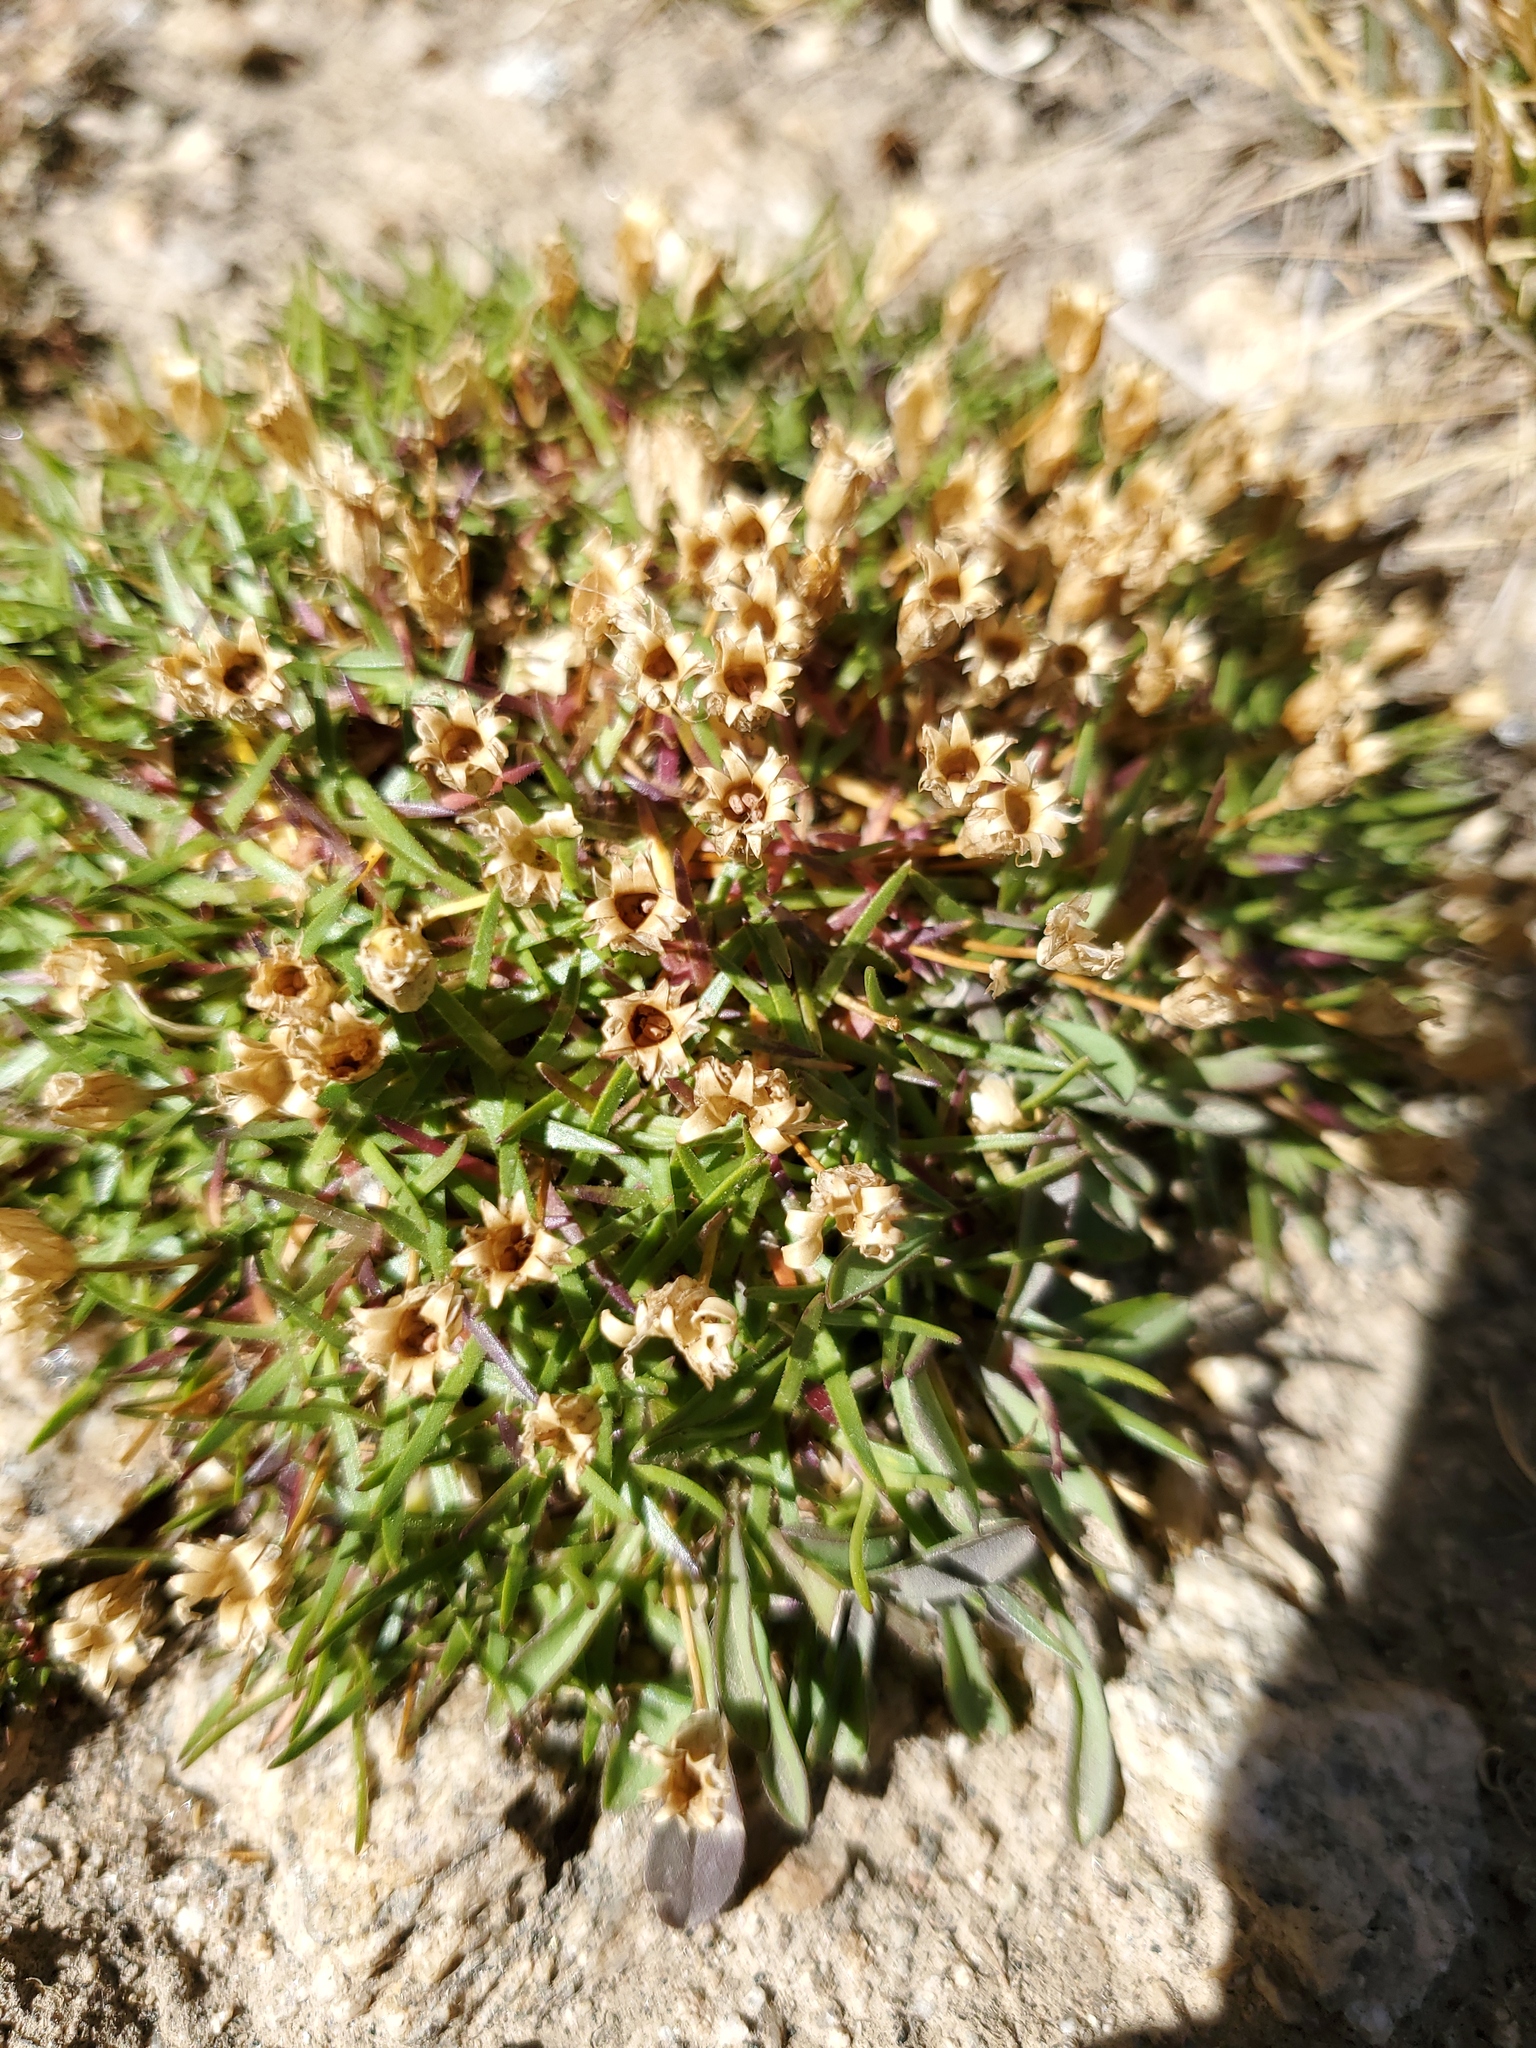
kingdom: Plantae
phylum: Tracheophyta
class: Magnoliopsida
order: Caryophyllales
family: Caryophyllaceae
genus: Silene
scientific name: Silene acaulis
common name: Moss campion
